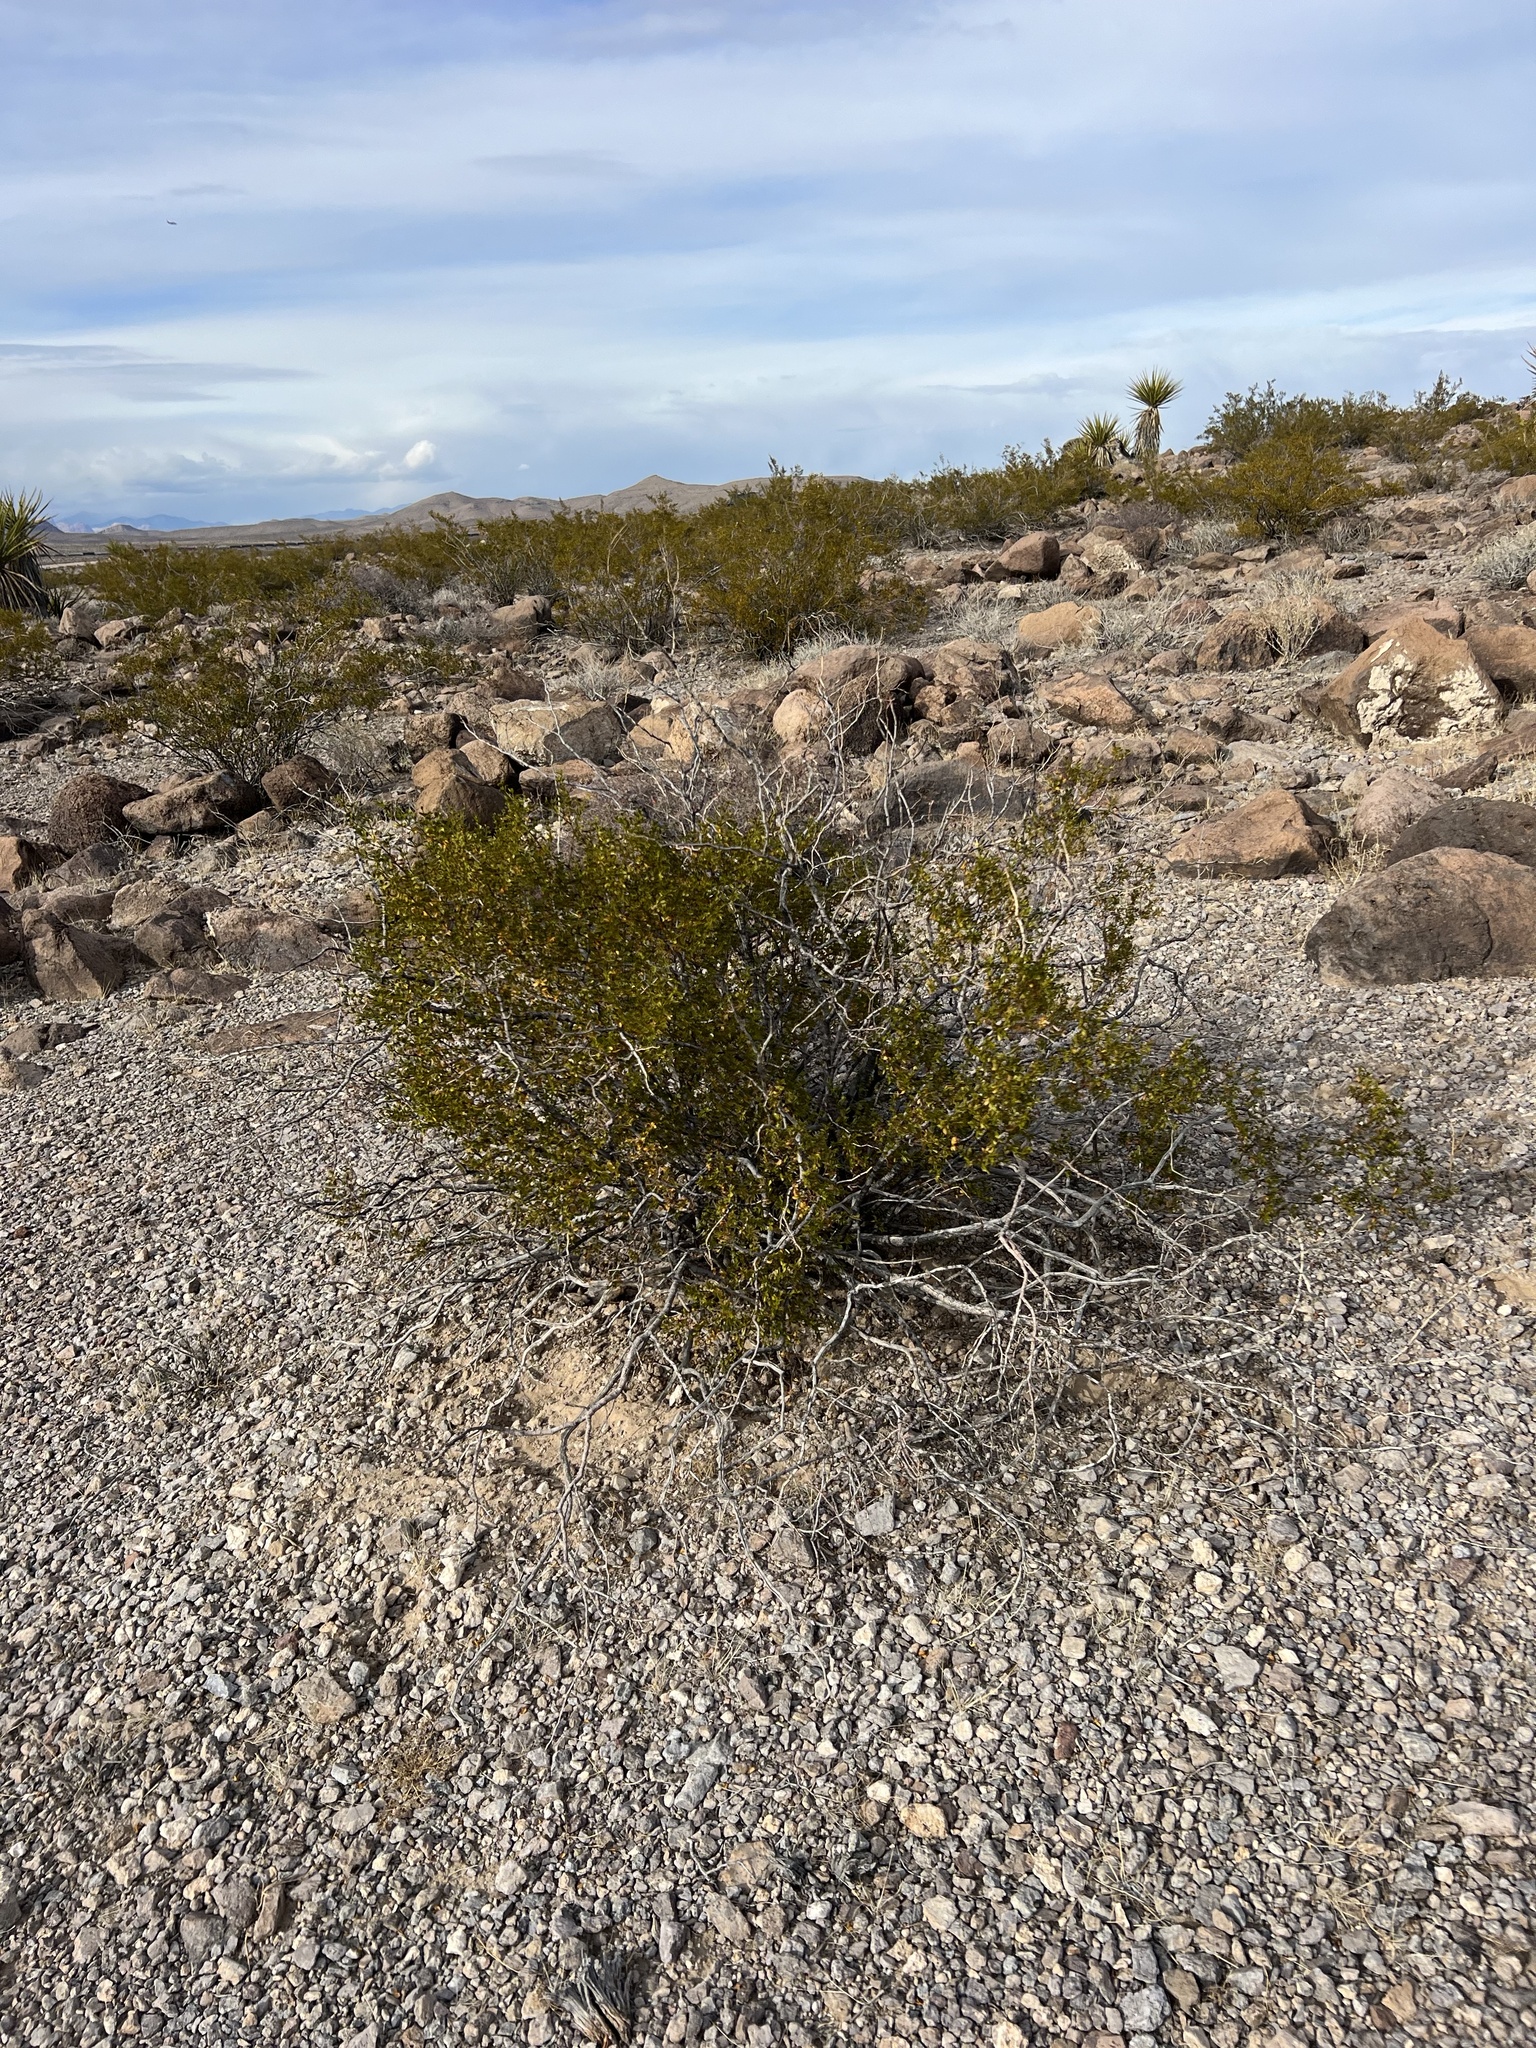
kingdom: Plantae
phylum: Tracheophyta
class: Magnoliopsida
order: Zygophyllales
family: Zygophyllaceae
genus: Larrea
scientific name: Larrea tridentata
